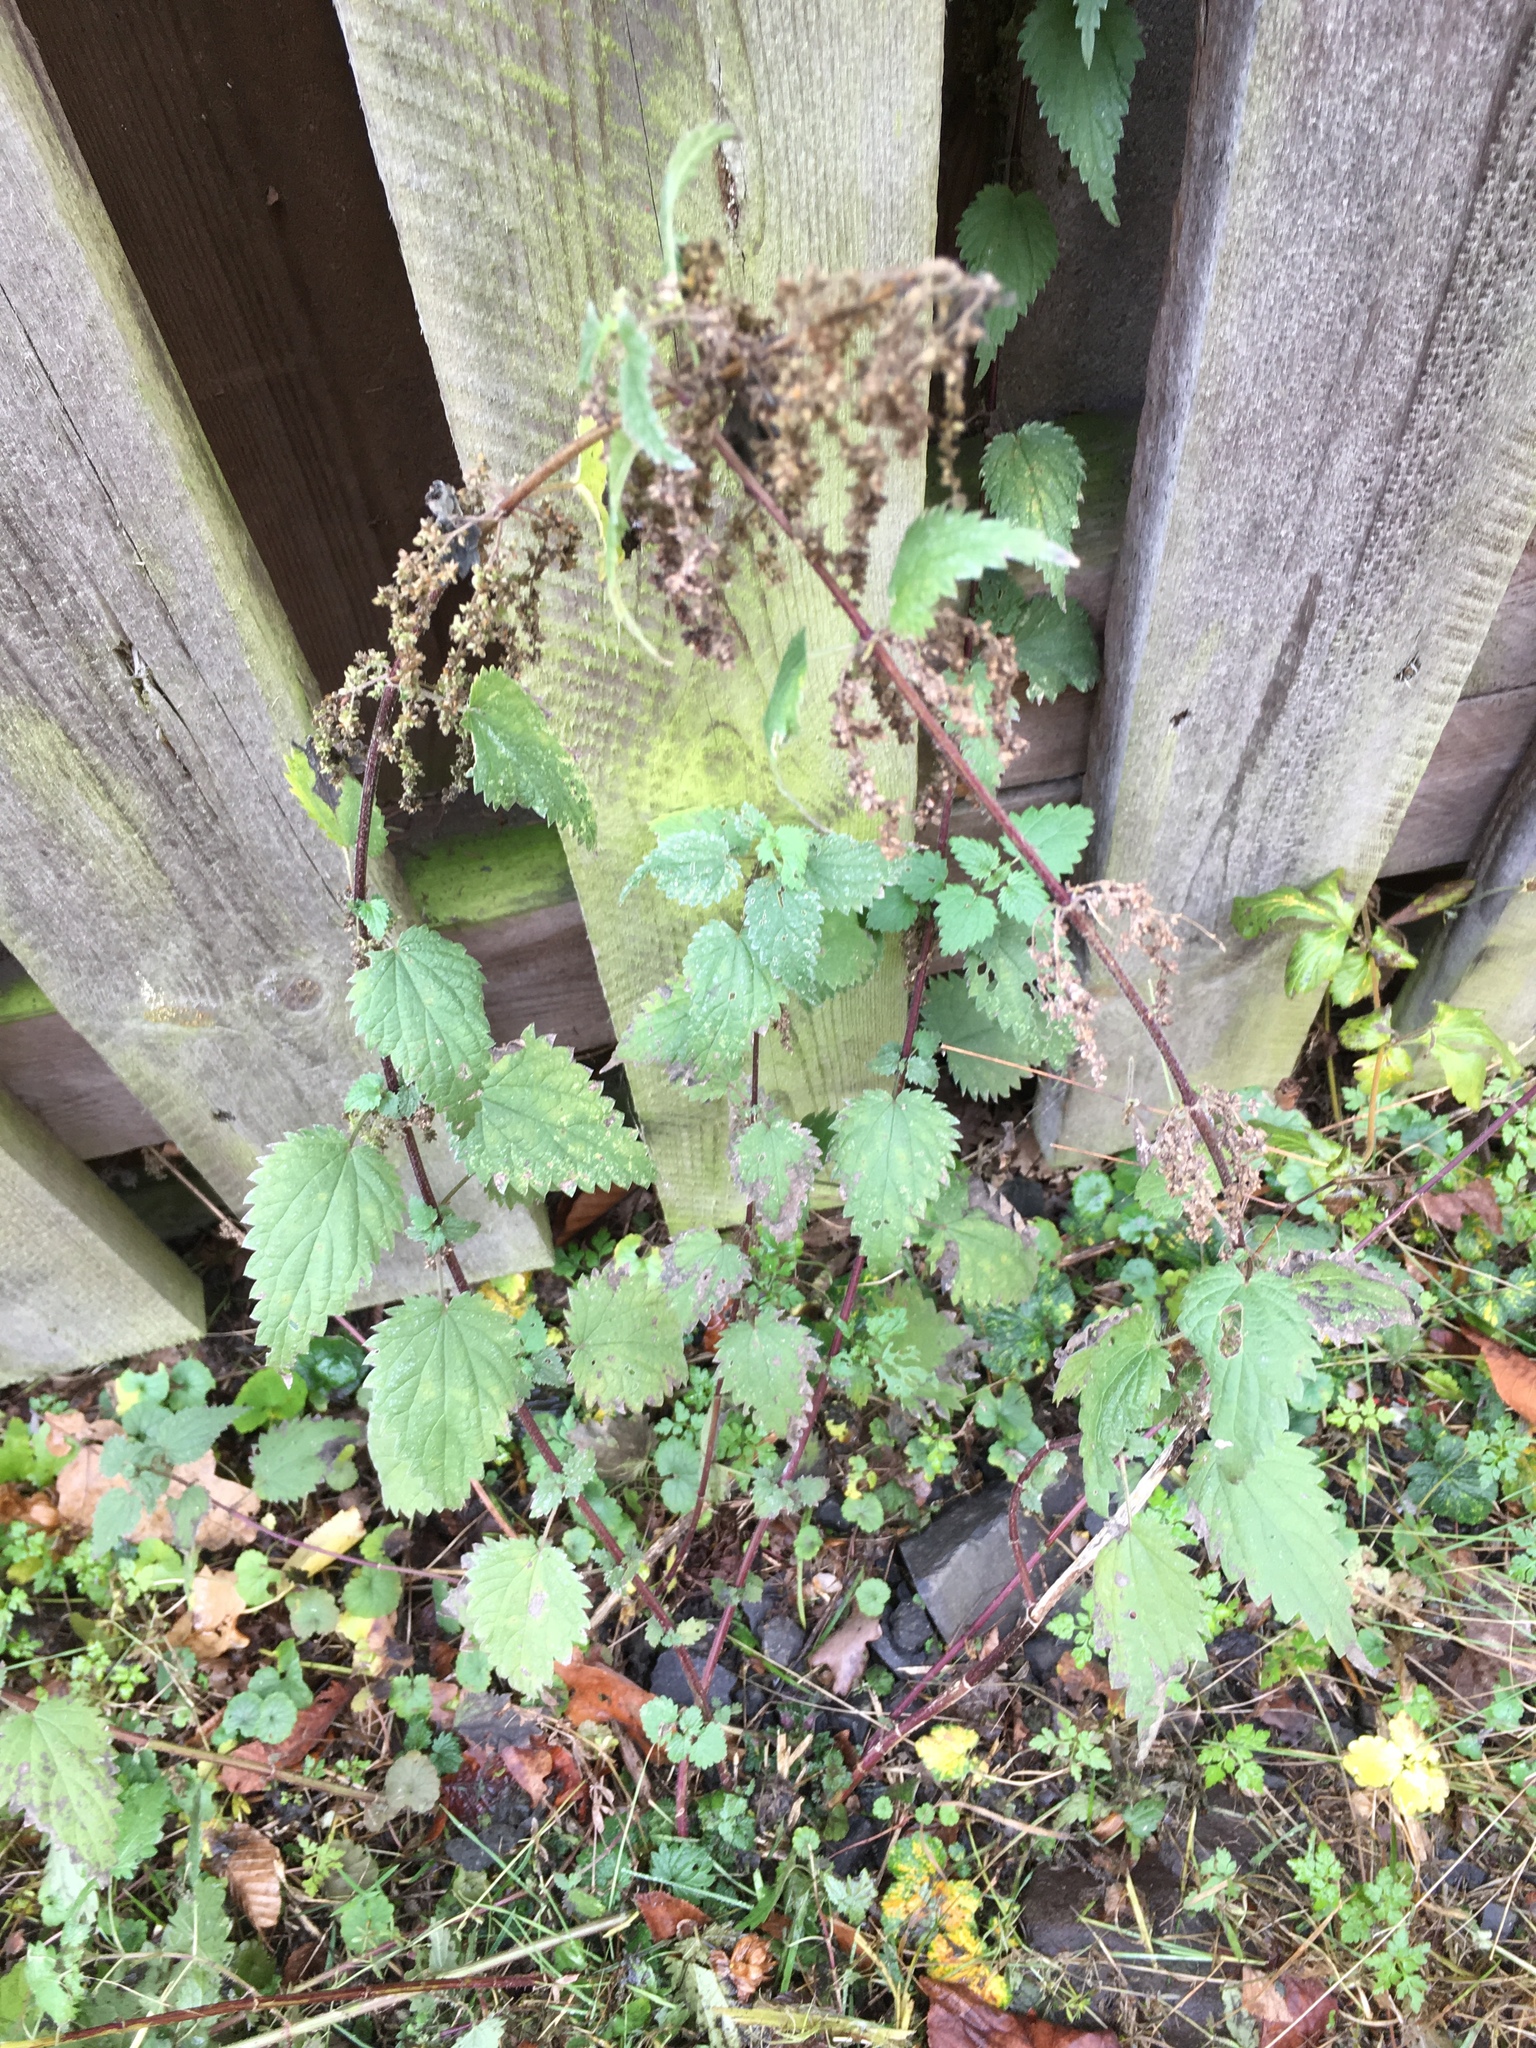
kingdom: Plantae
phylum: Tracheophyta
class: Magnoliopsida
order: Rosales
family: Urticaceae
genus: Urtica
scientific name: Urtica dioica
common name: Common nettle
